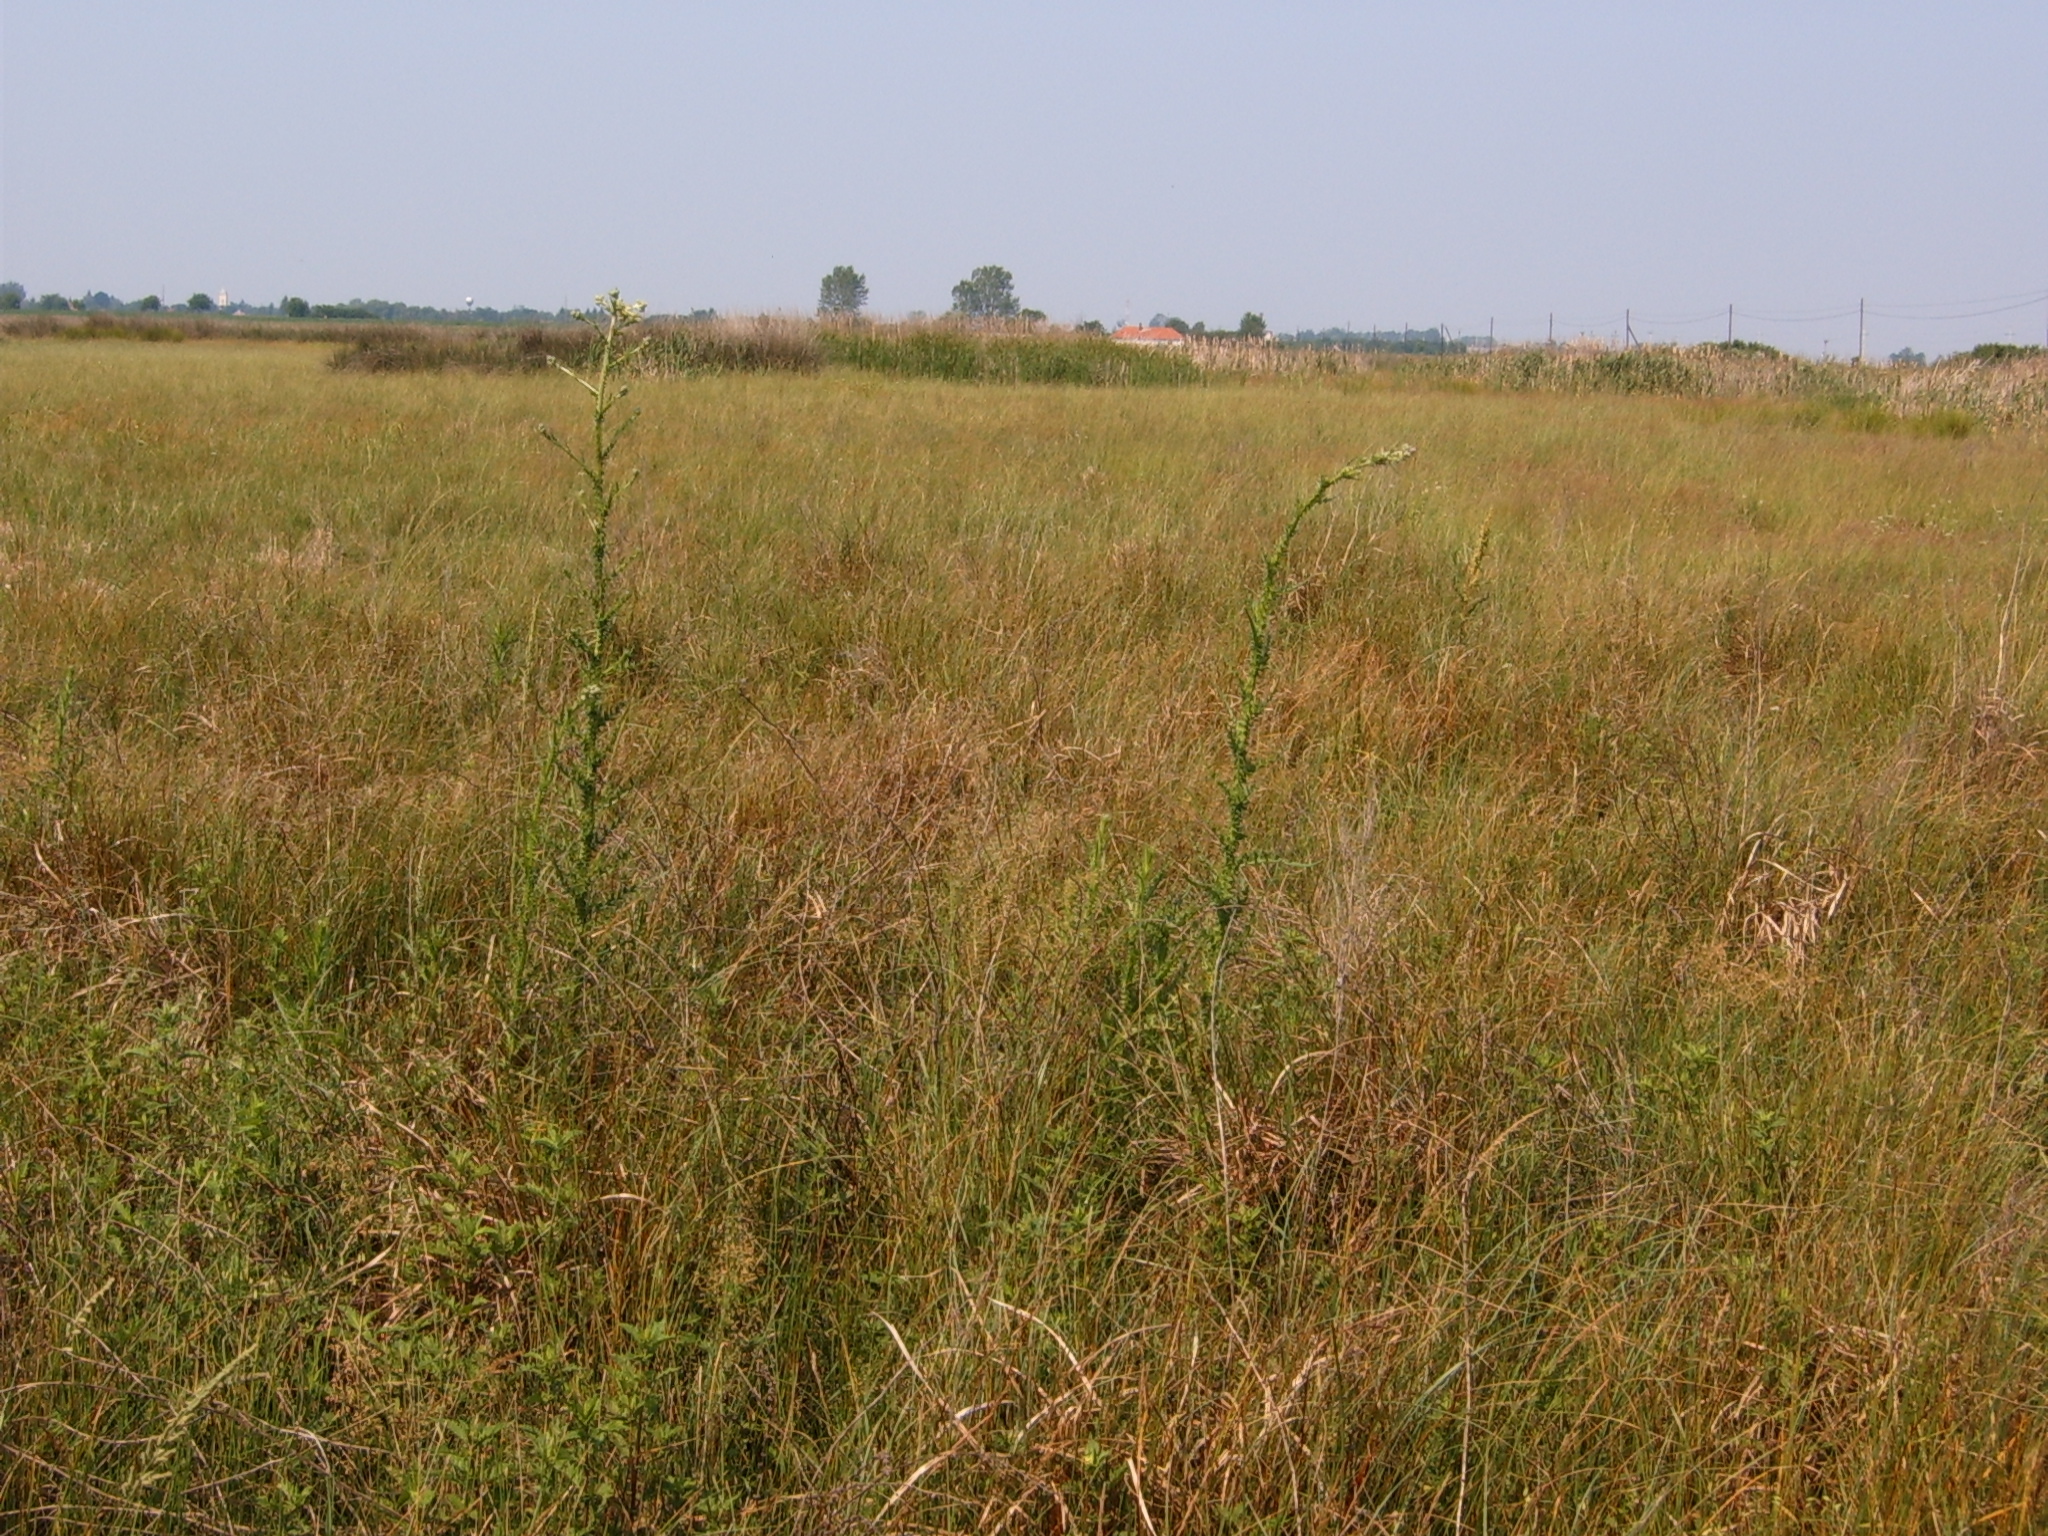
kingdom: Plantae
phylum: Tracheophyta
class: Magnoliopsida
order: Asterales
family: Asteraceae
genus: Cirsium
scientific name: Cirsium brachycephalum
